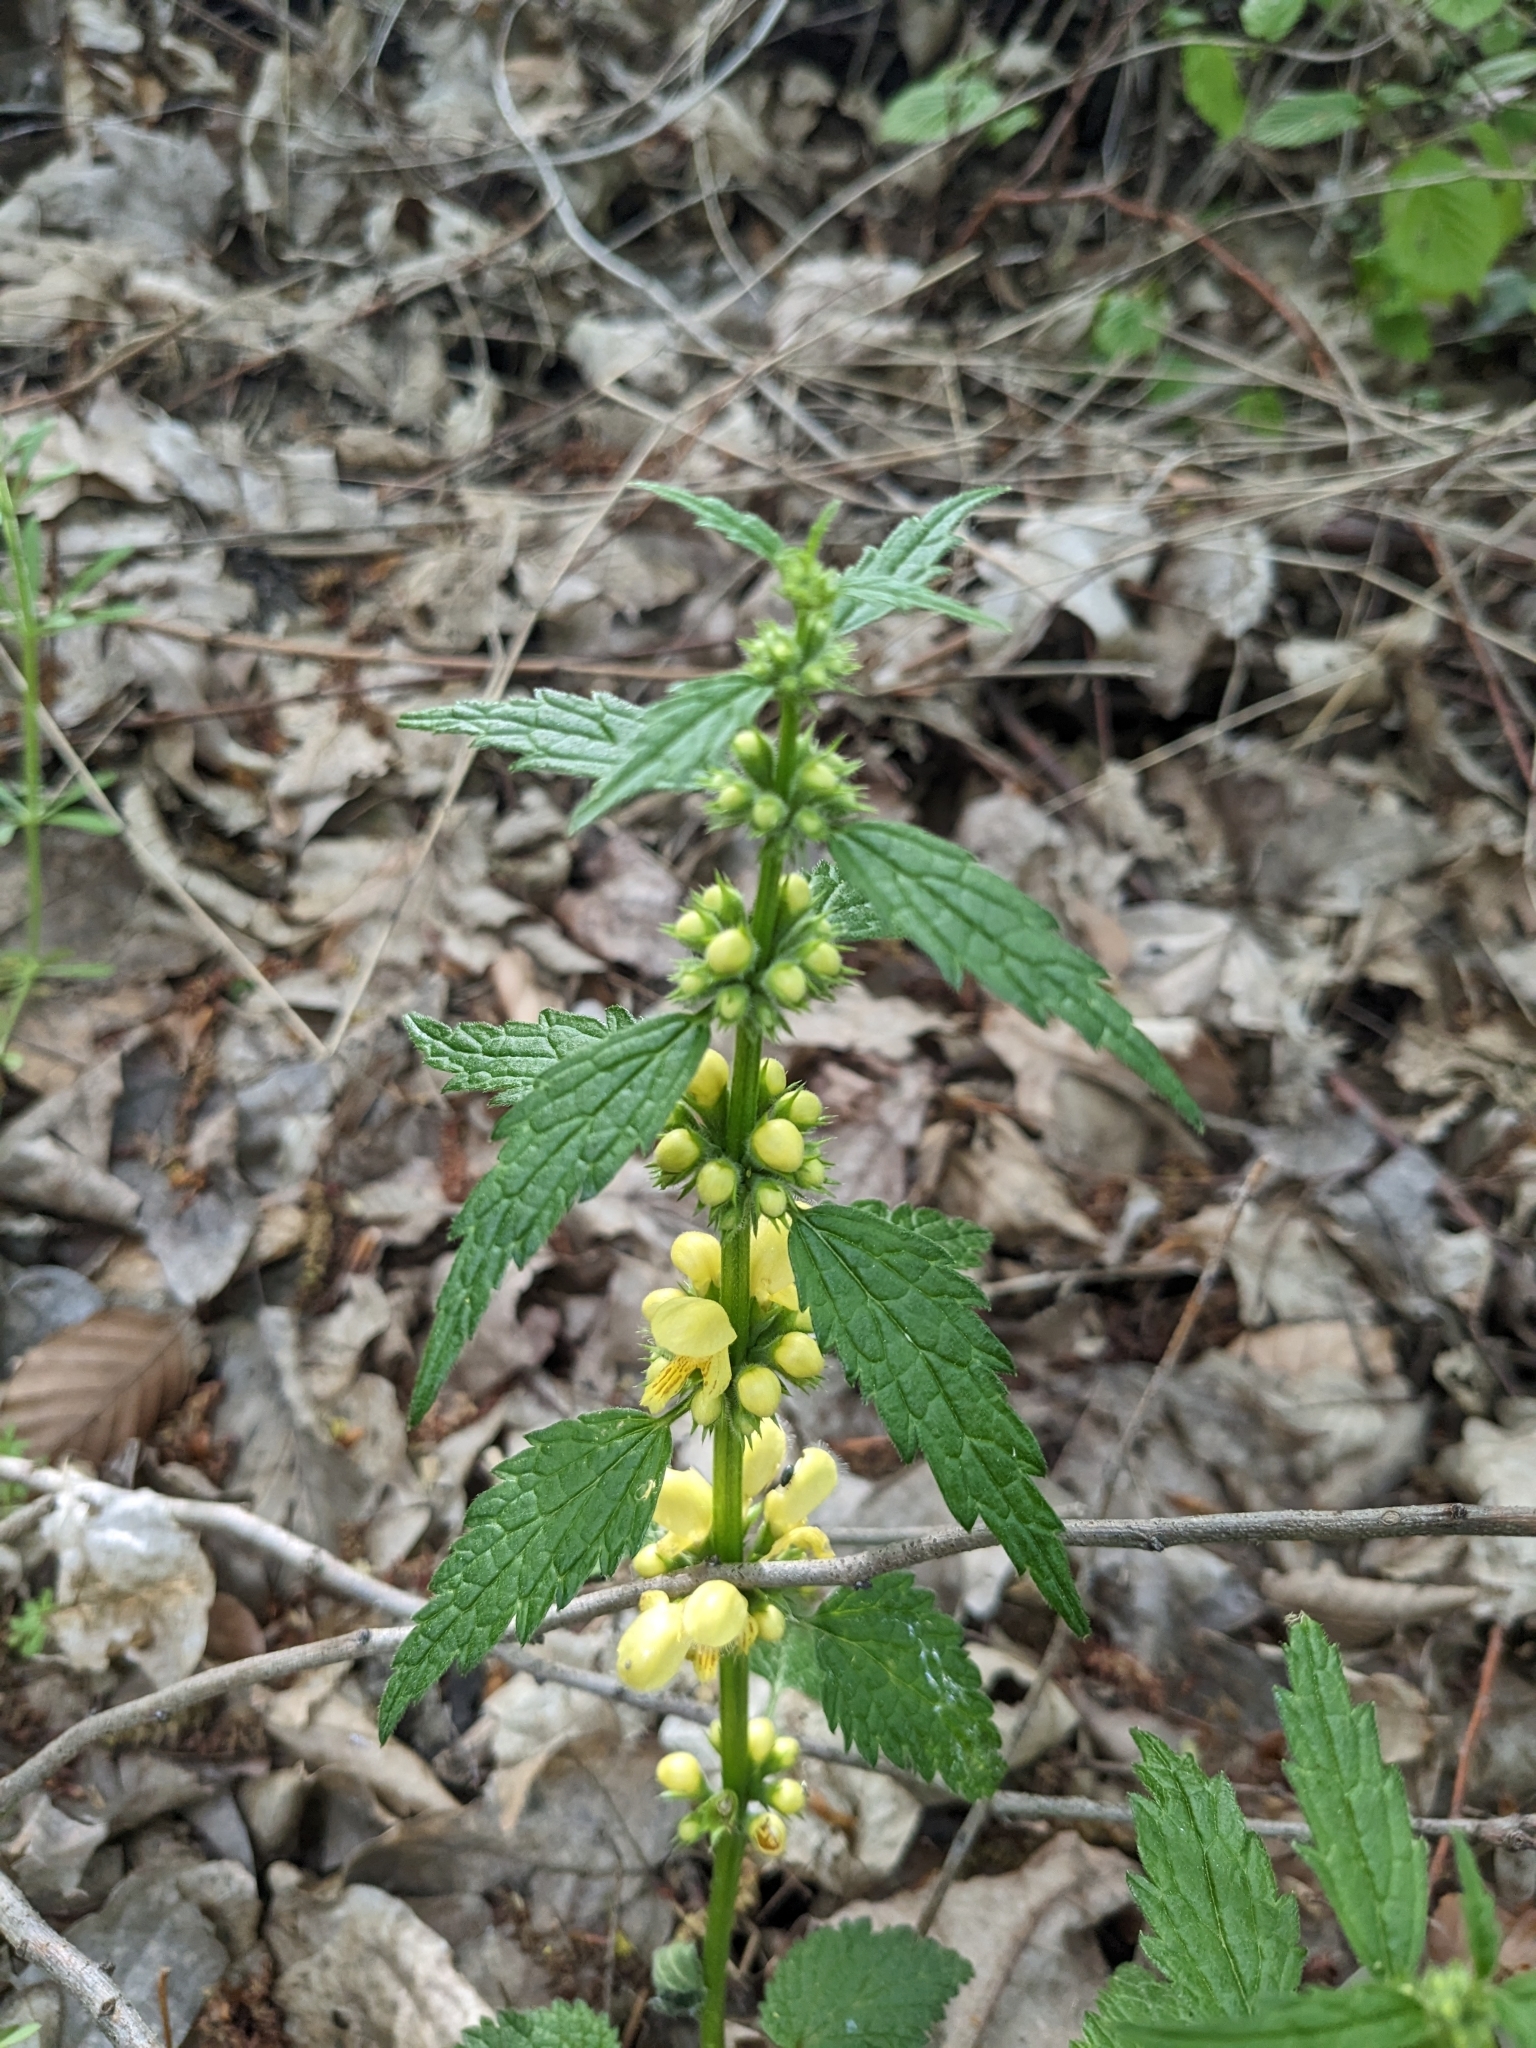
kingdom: Plantae
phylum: Tracheophyta
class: Magnoliopsida
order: Lamiales
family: Lamiaceae
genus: Lamium
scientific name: Lamium galeobdolon
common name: Yellow archangel
